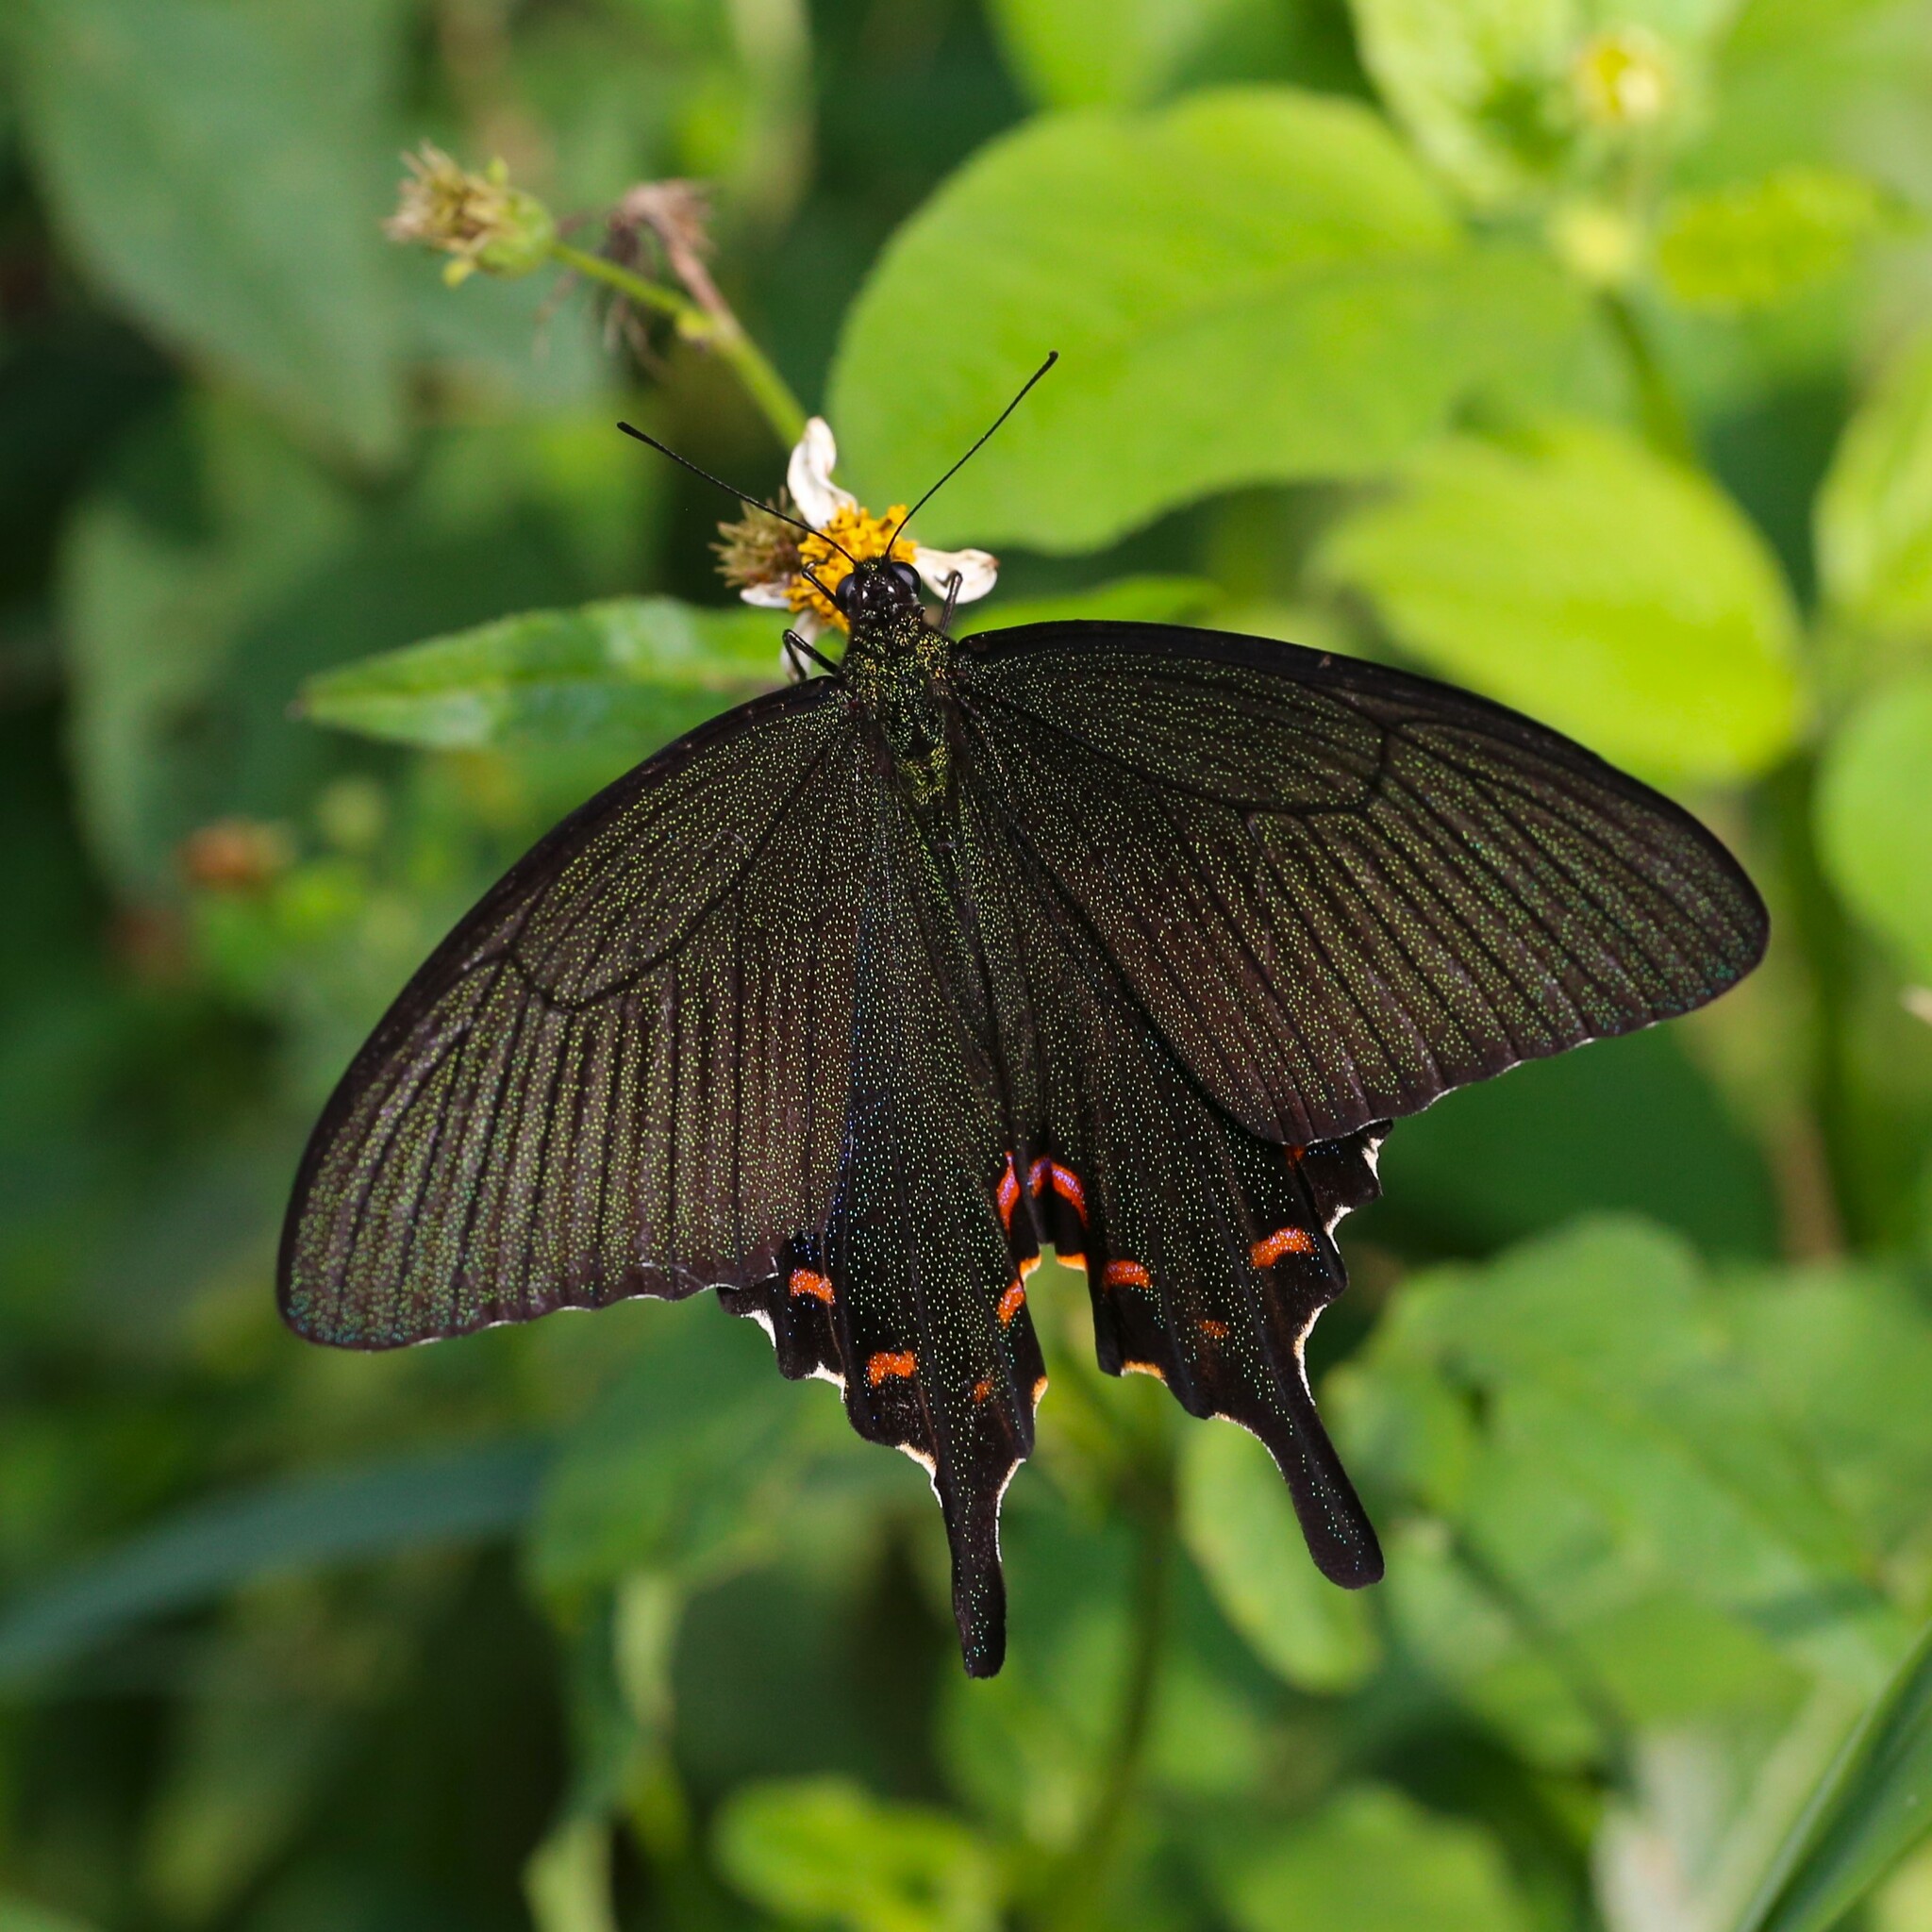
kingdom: Animalia
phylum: Arthropoda
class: Insecta
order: Lepidoptera
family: Papilionidae
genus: Papilio
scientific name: Papilio bianor
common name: Common peacock
